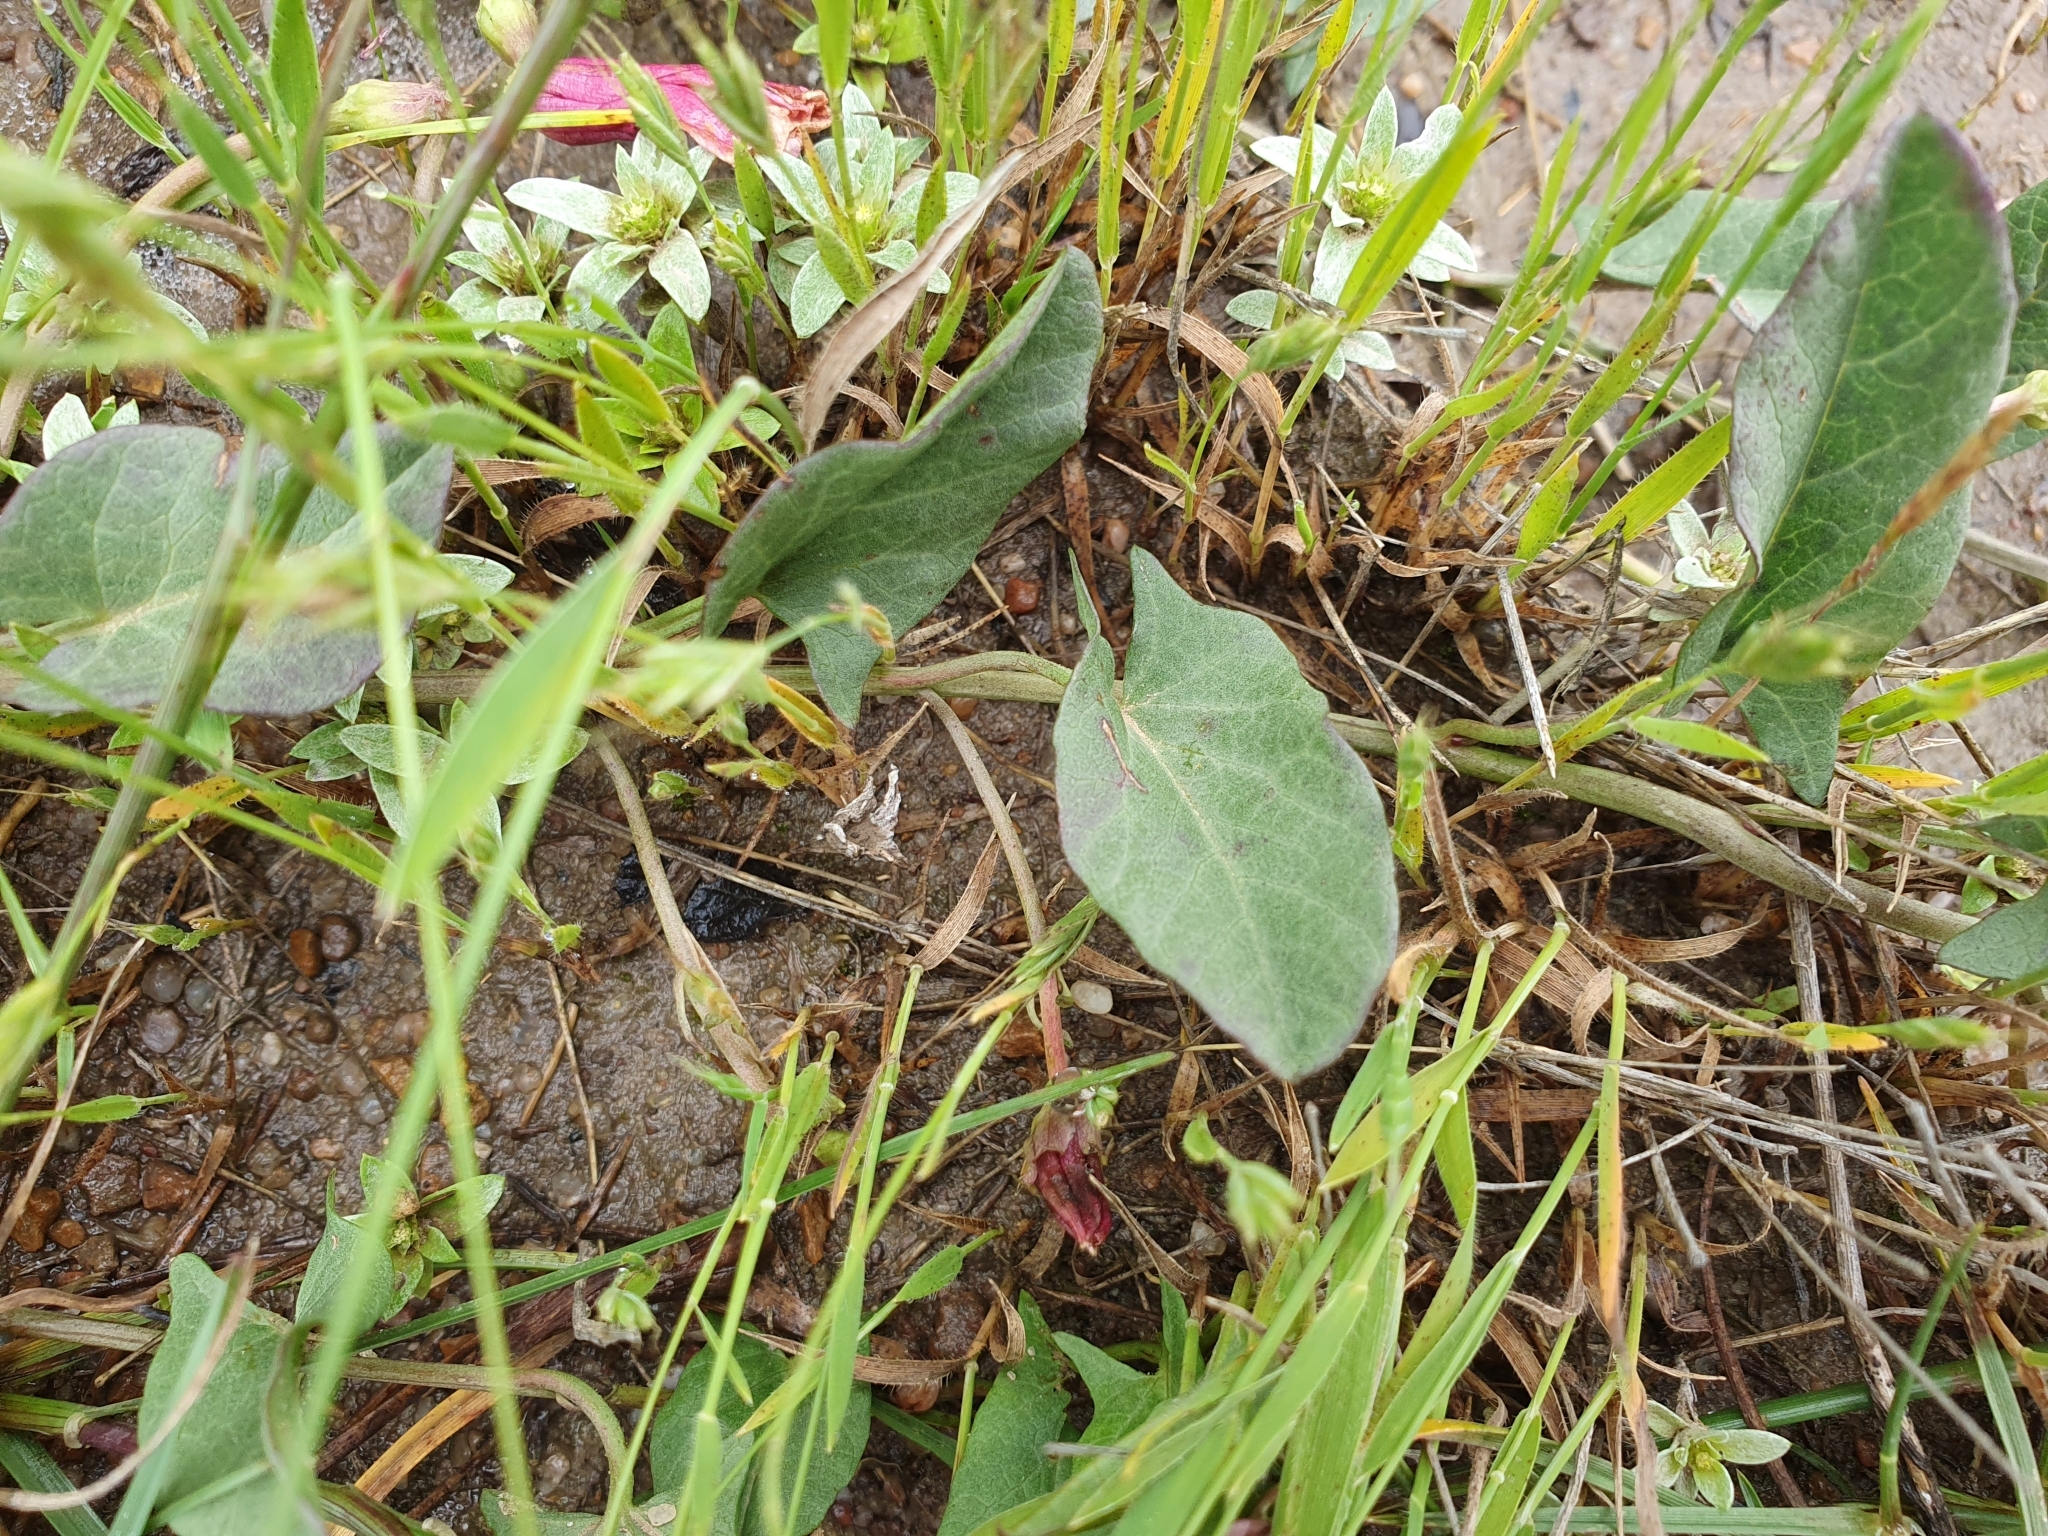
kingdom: Plantae
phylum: Tracheophyta
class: Magnoliopsida
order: Solanales
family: Convolvulaceae
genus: Convolvulus
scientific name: Convolvulus durandoi
